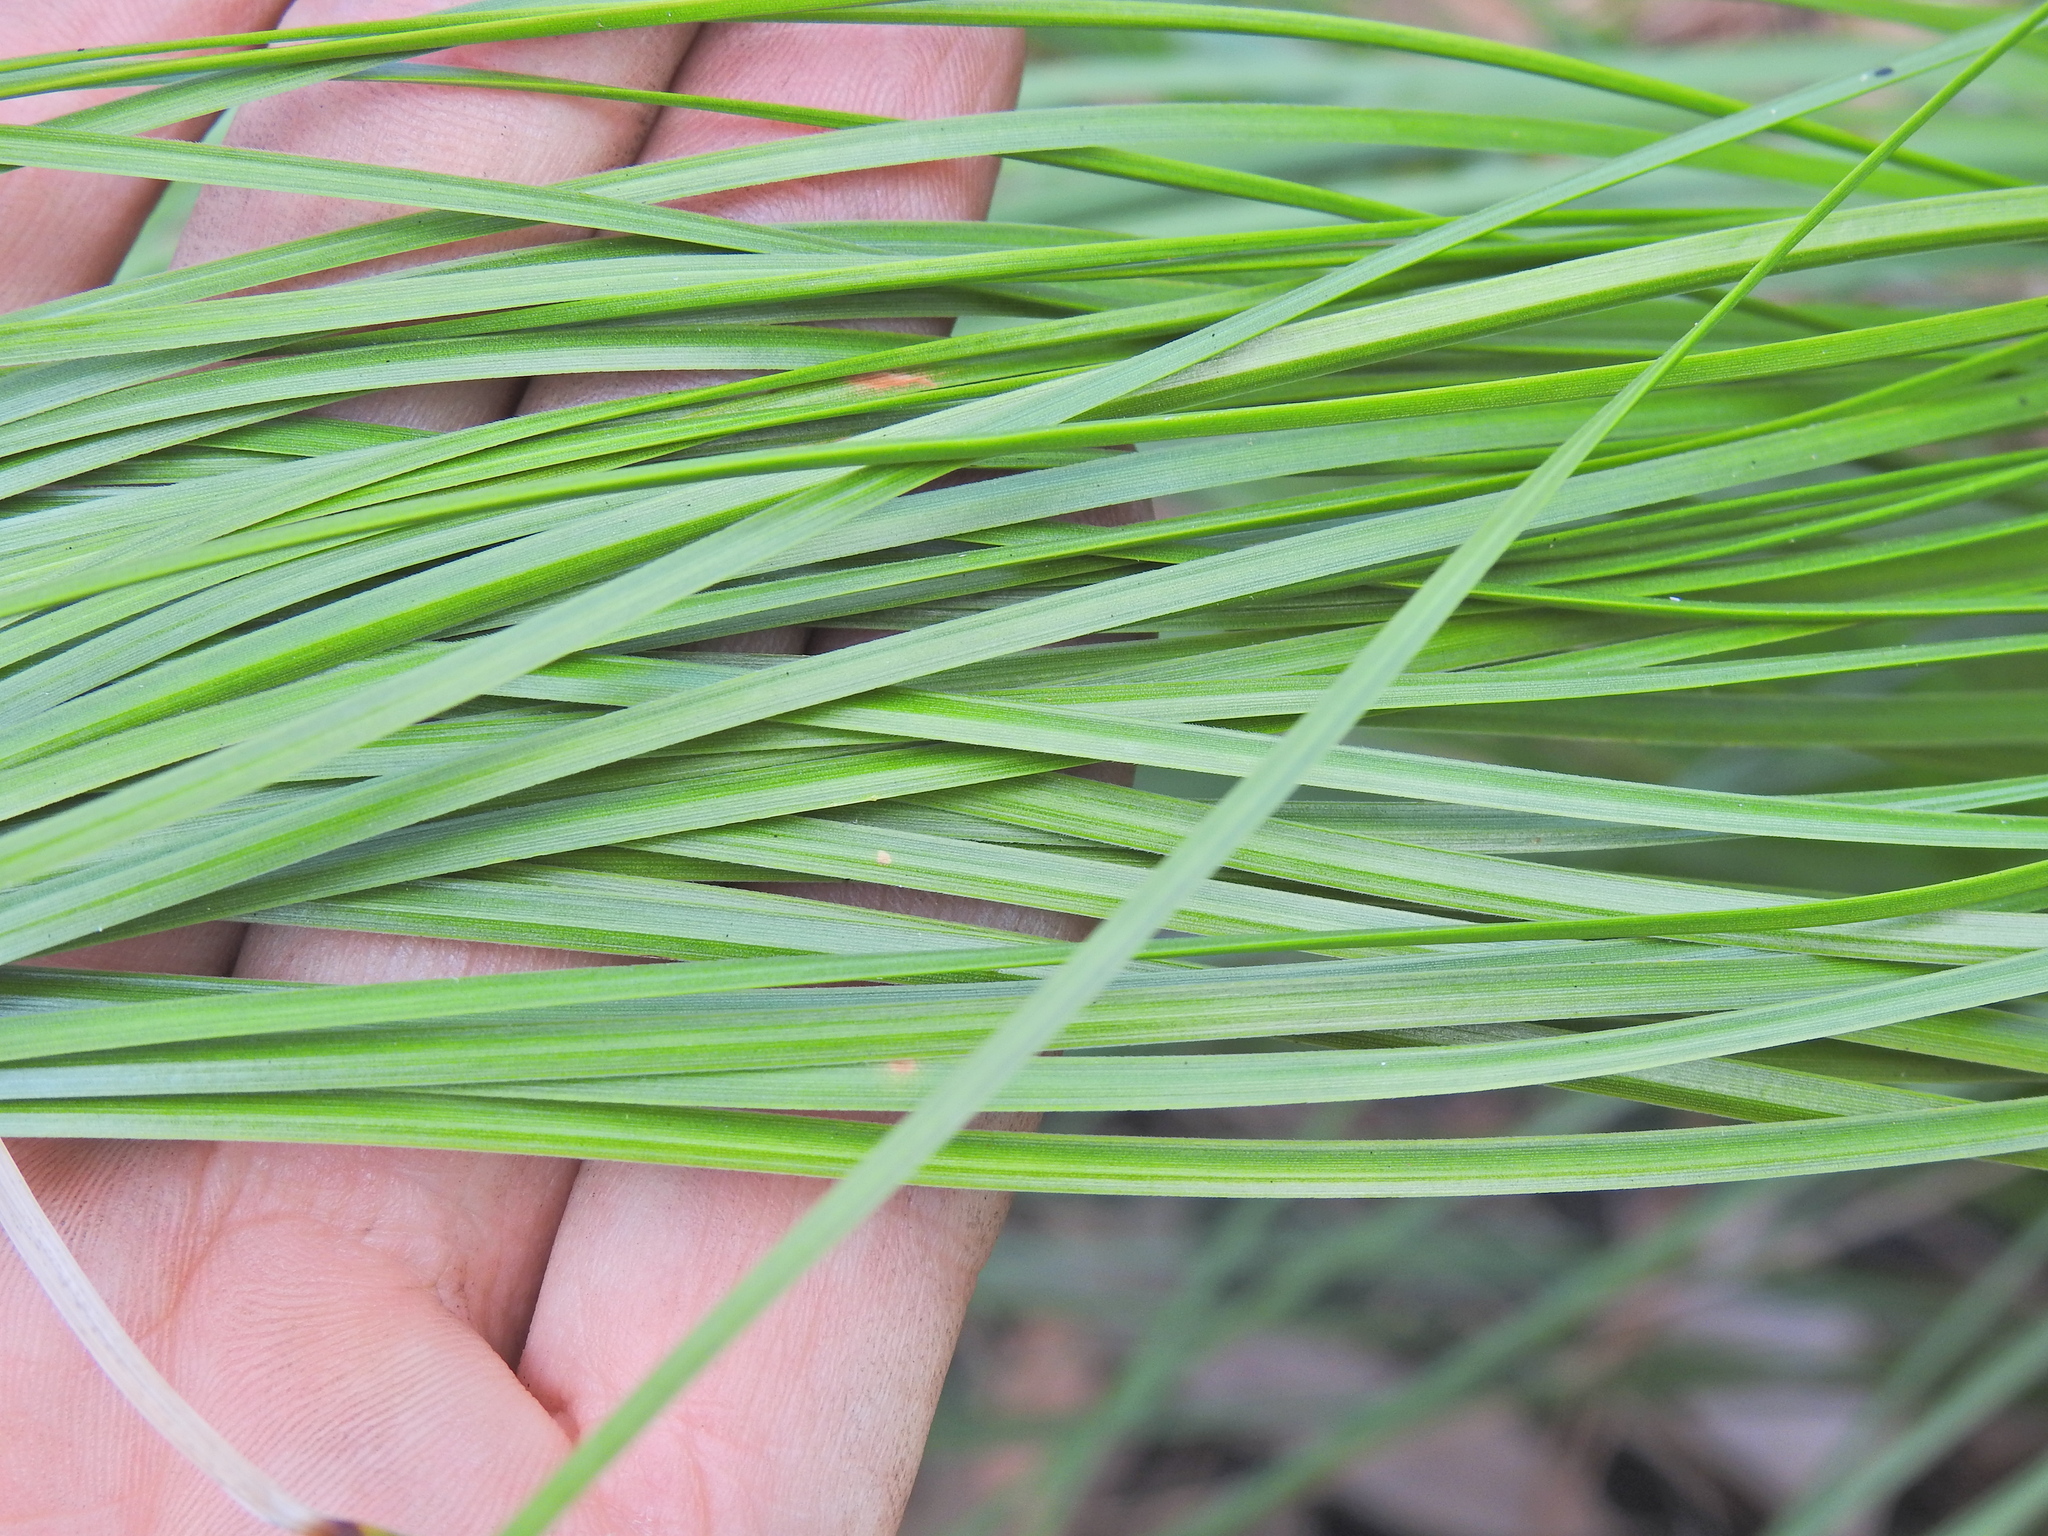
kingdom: Plantae
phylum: Tracheophyta
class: Liliopsida
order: Asparagales
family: Asphodelaceae
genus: Xanthorrhoea
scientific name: Xanthorrhoea latifolia
